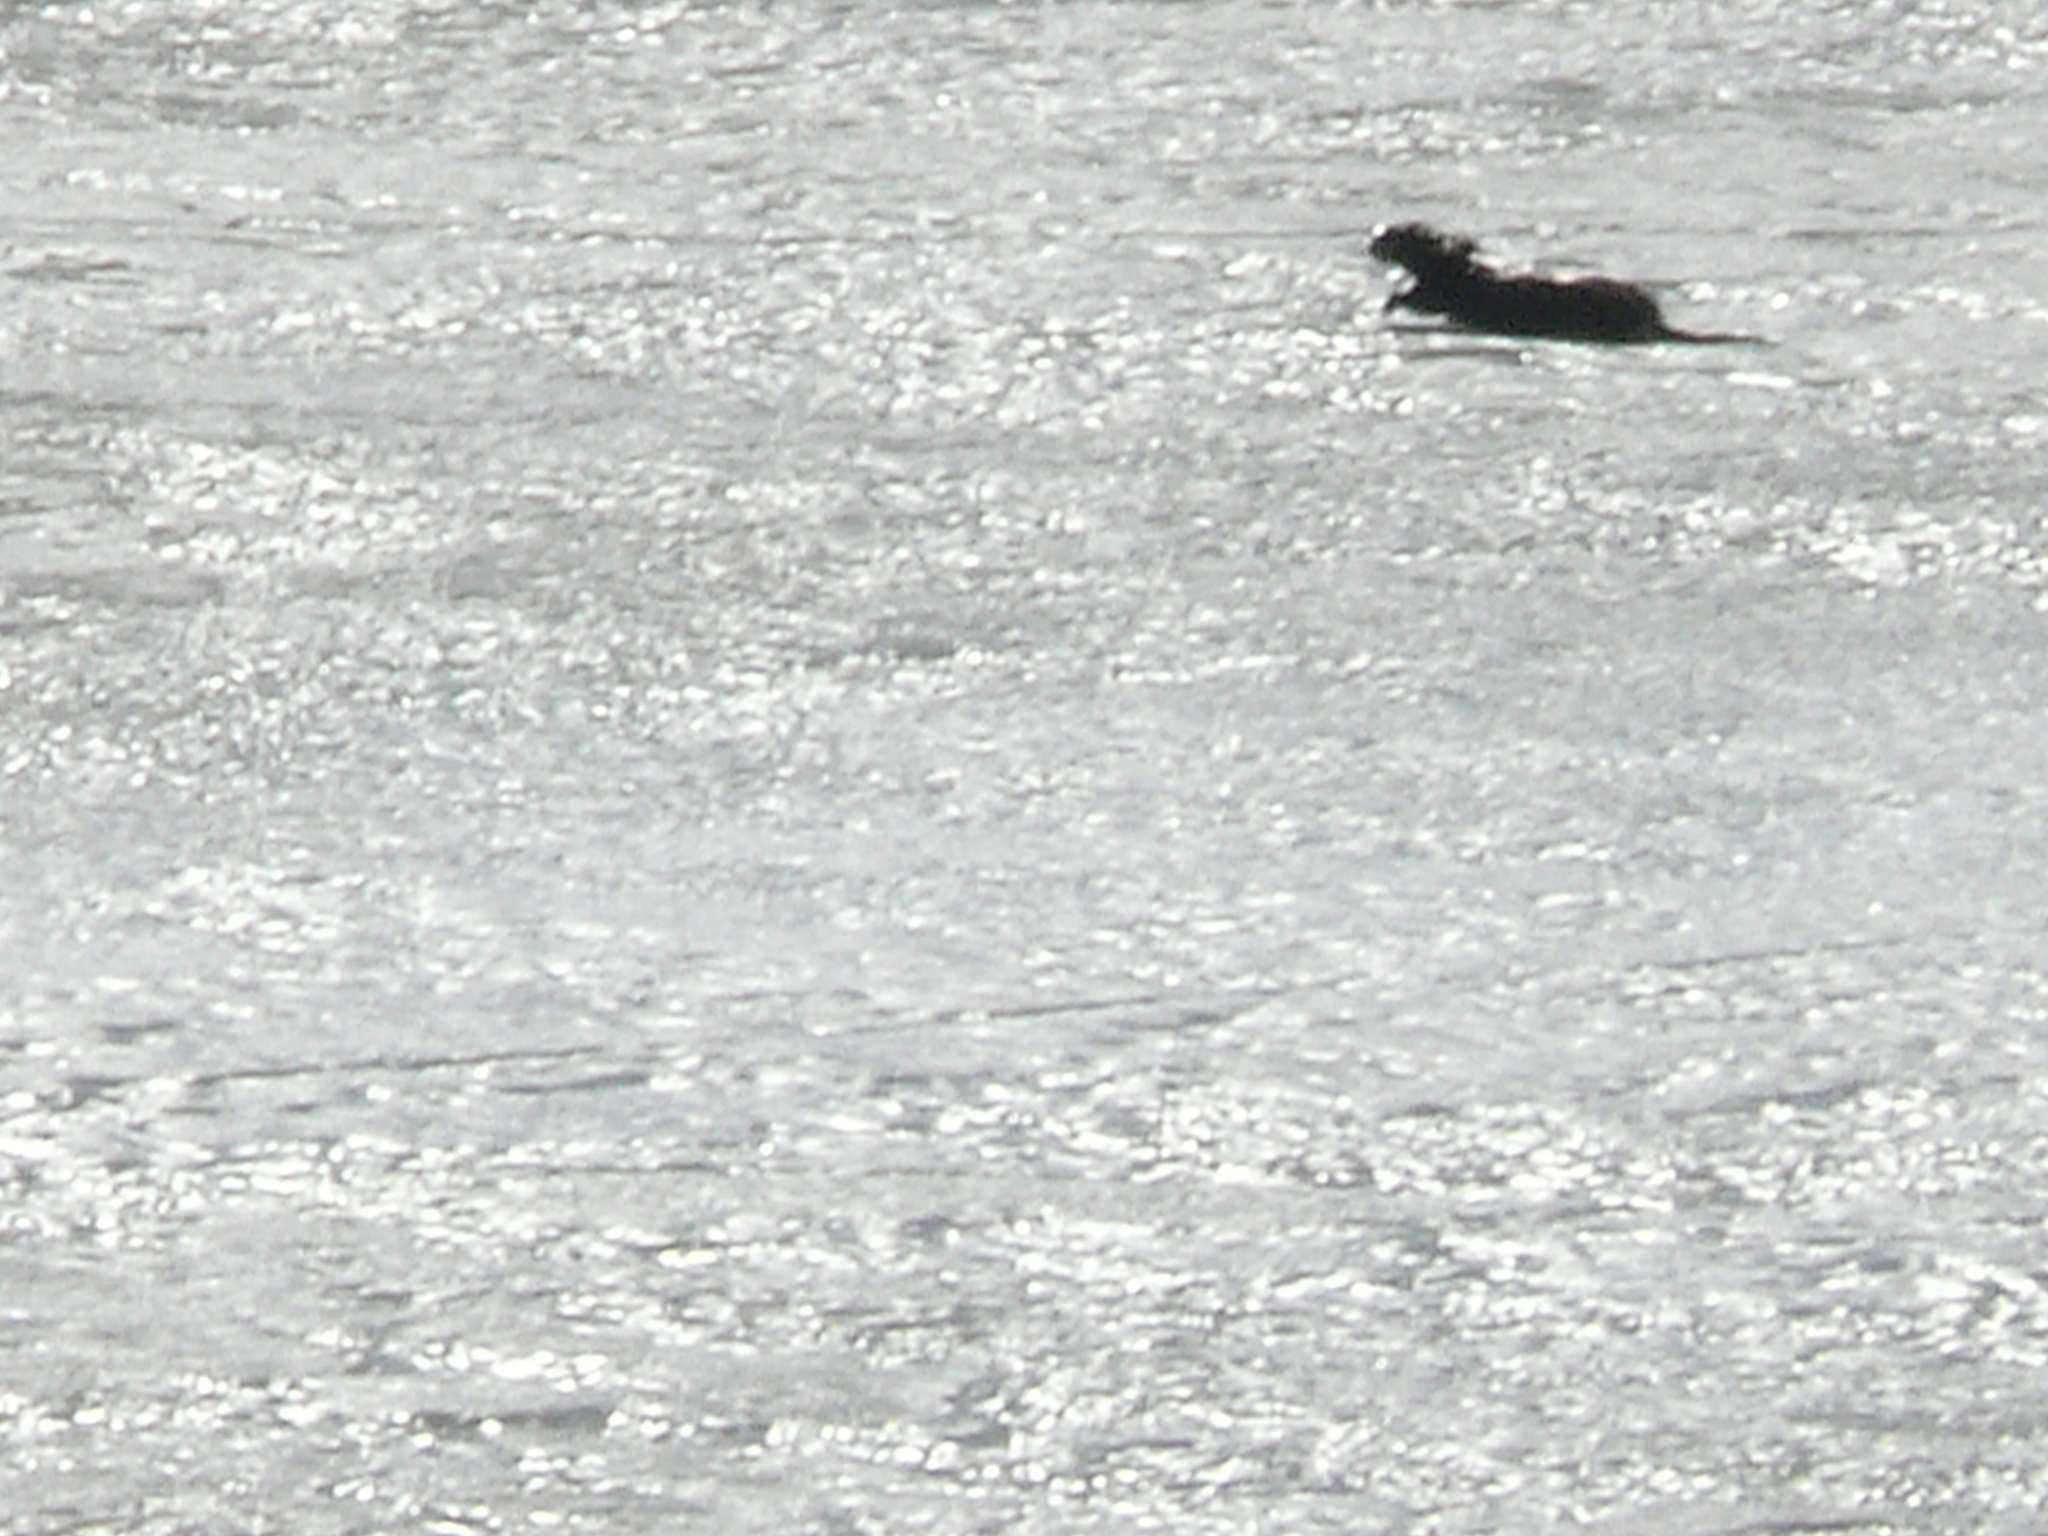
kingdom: Animalia
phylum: Chordata
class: Mammalia
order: Carnivora
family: Mustelidae
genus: Lontra
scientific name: Lontra canadensis
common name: North american river otter
